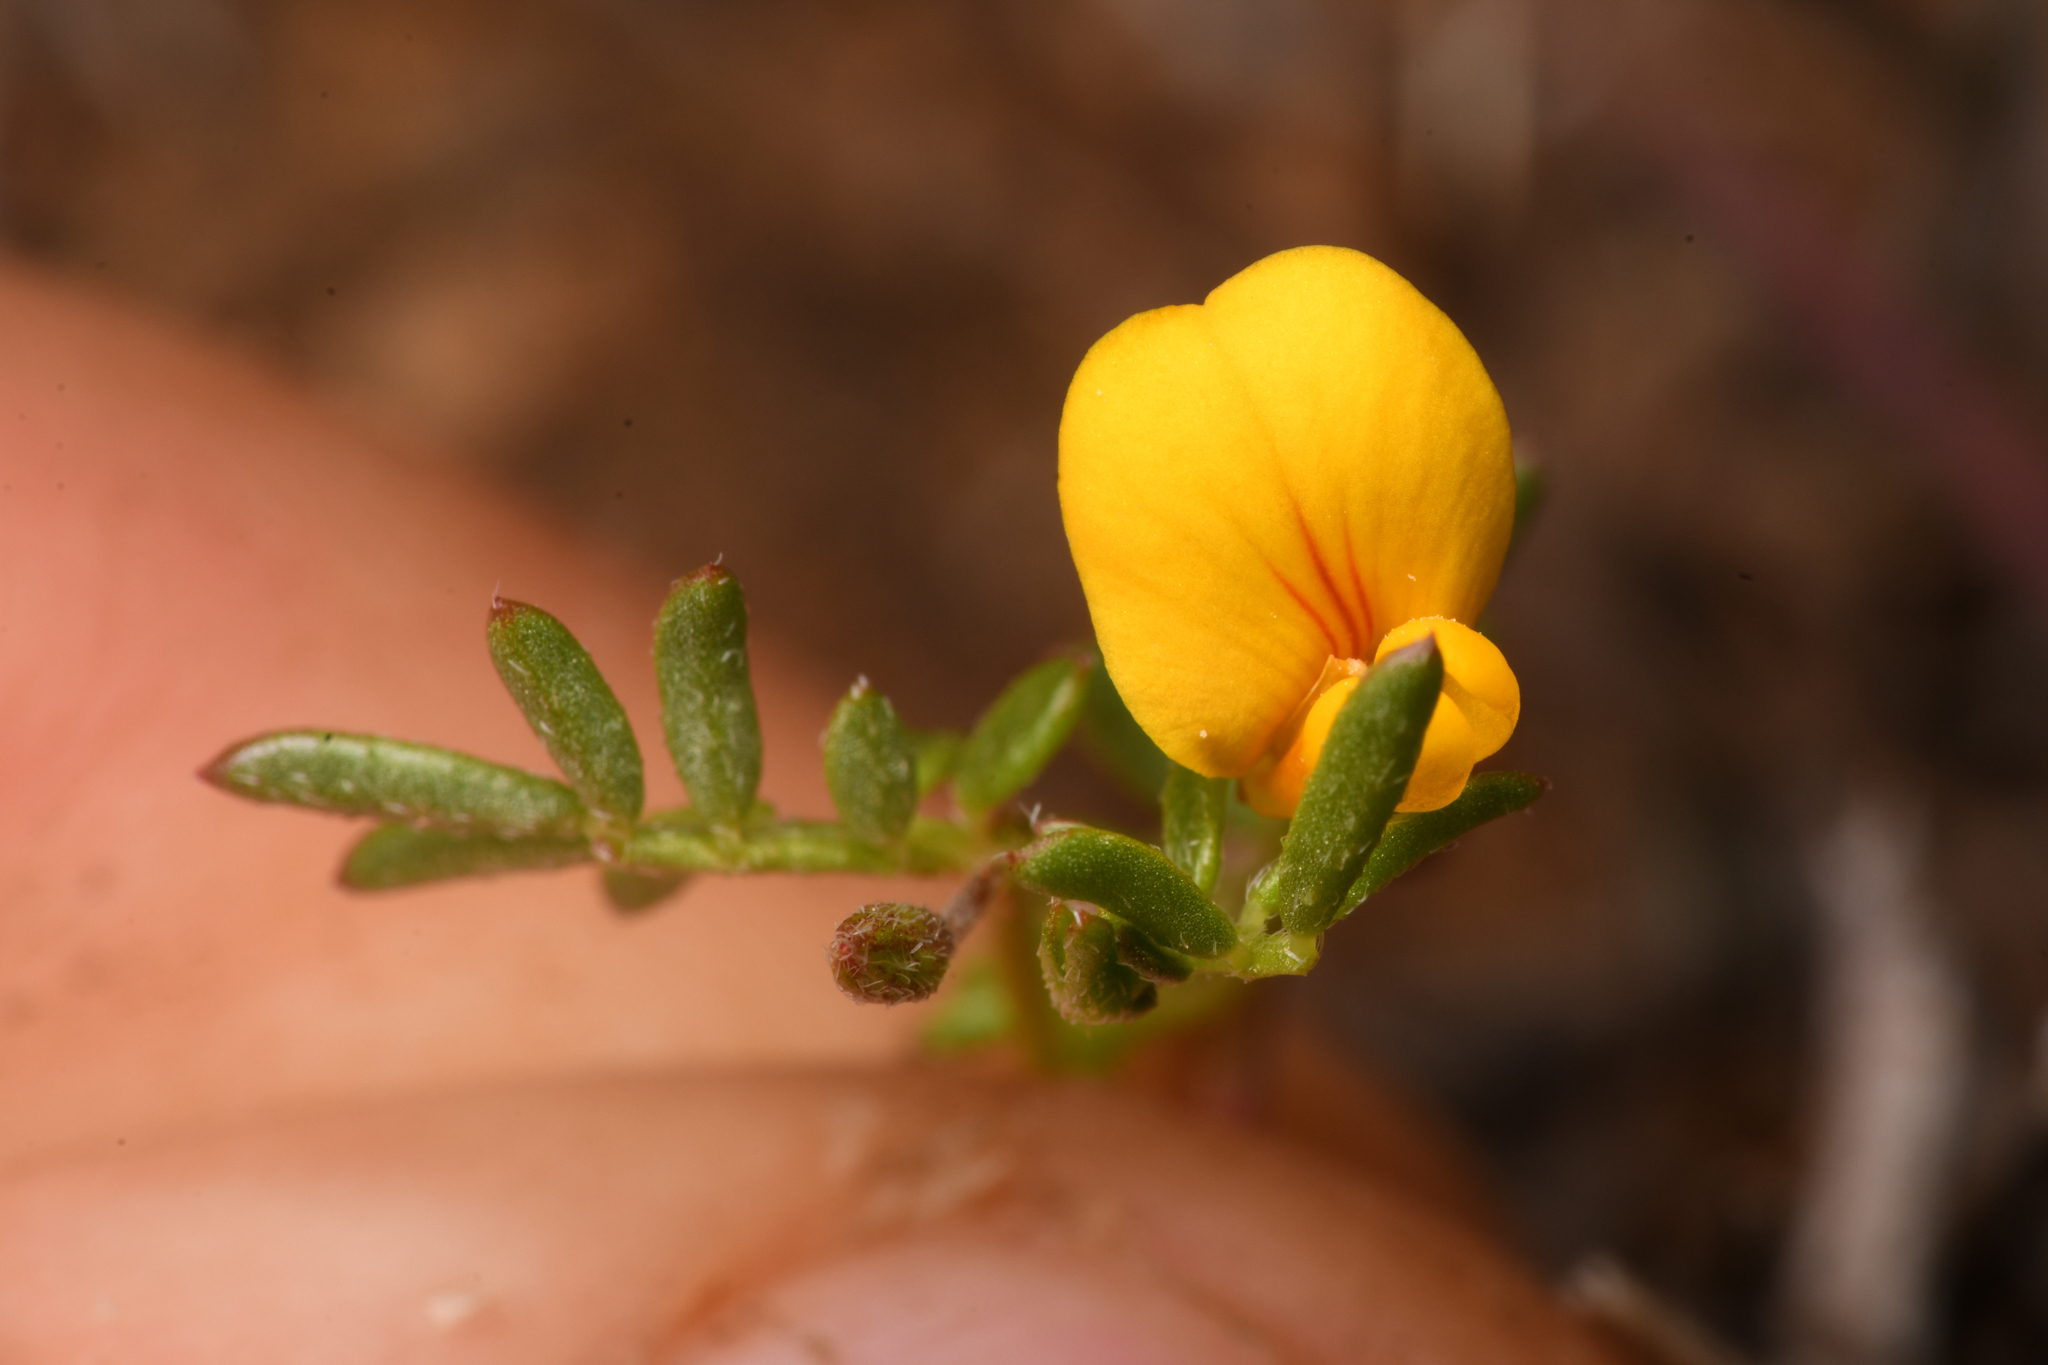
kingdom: Plantae
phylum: Tracheophyta
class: Magnoliopsida
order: Fabales
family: Fabaceae
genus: Acmispon
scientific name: Acmispon strigosus
